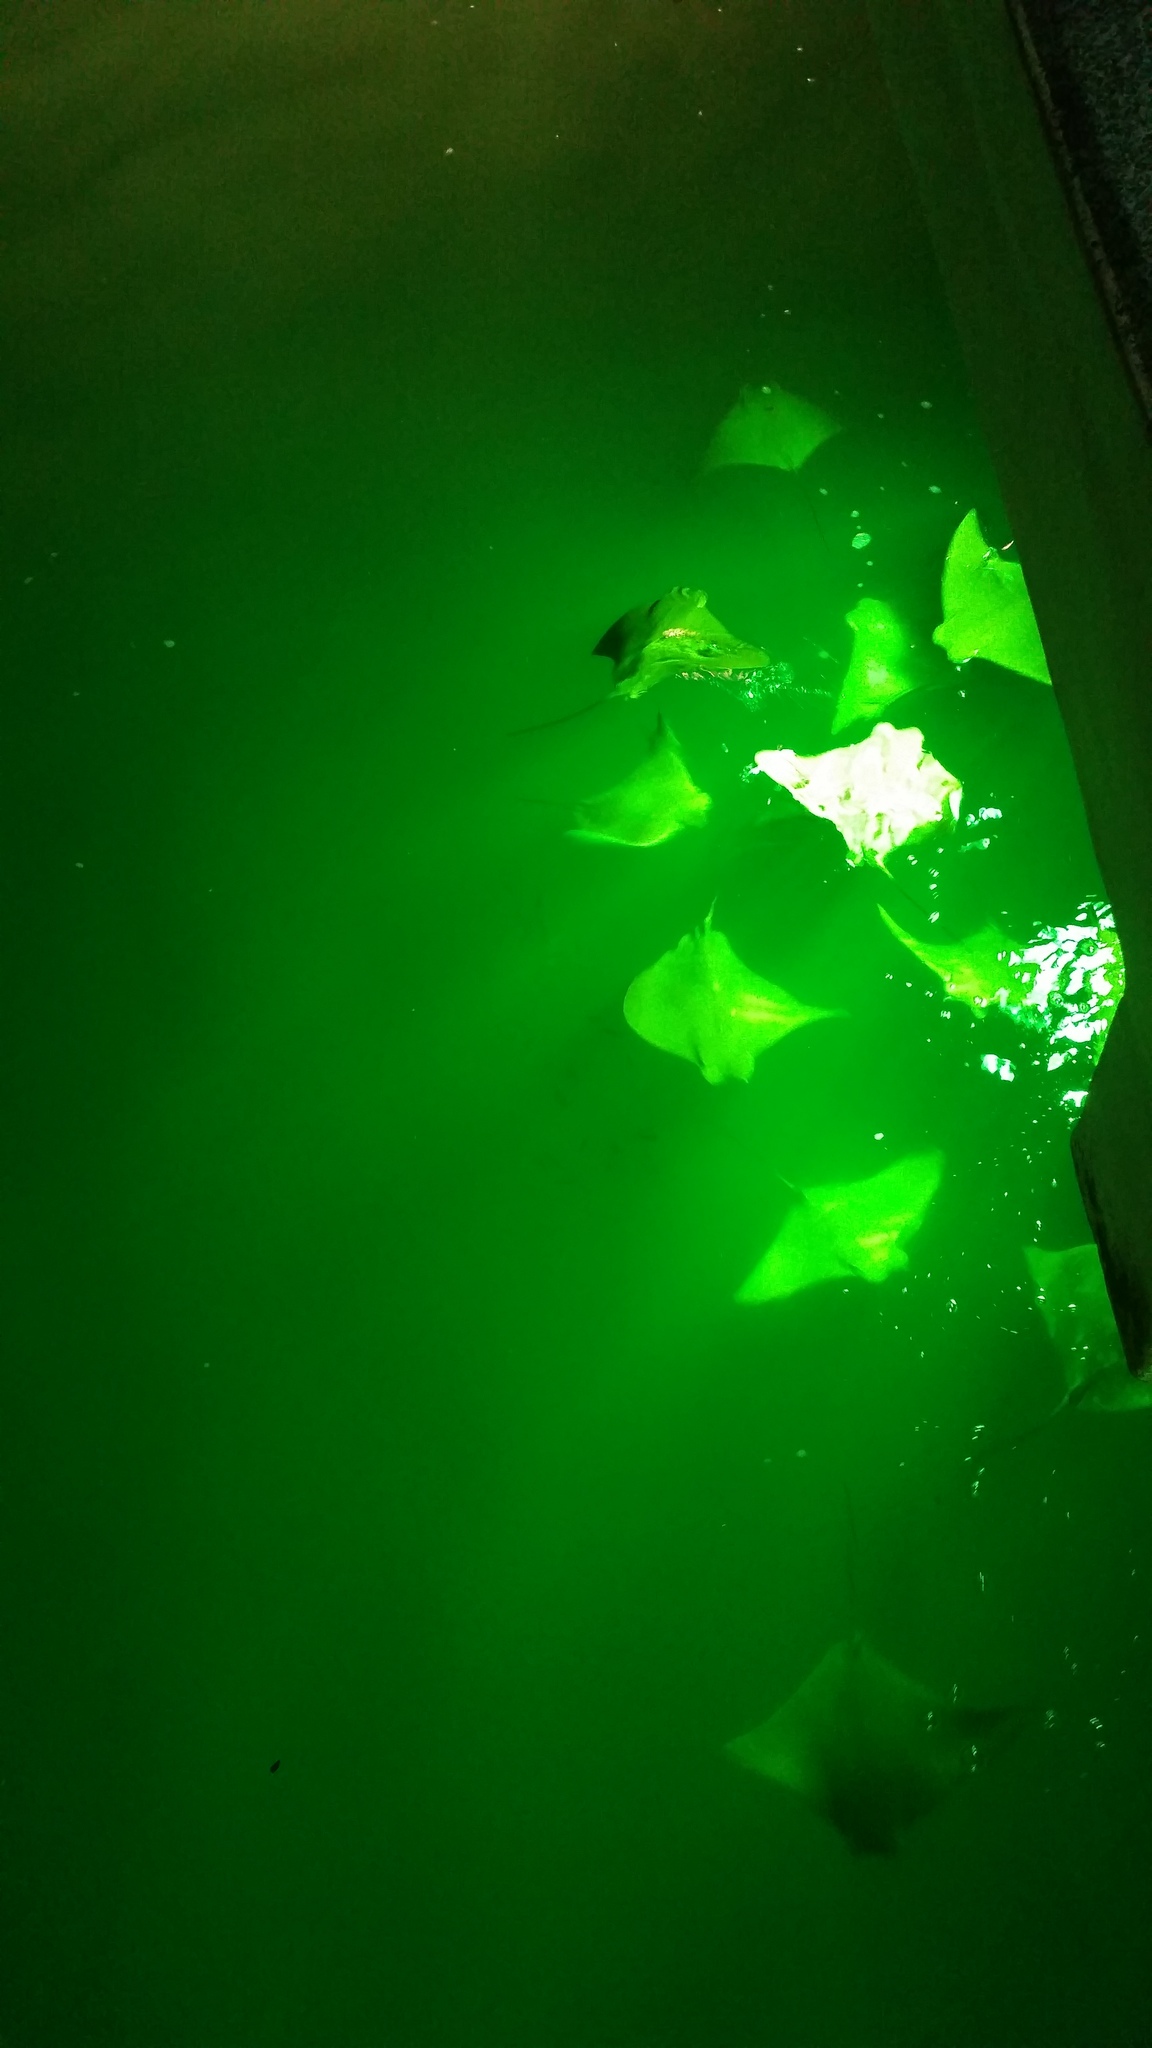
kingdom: Animalia
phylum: Chordata
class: Elasmobranchii
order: Myliobatiformes
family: Myliobatidae
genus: Rhinoptera
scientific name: Rhinoptera steindachneri
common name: Golden cownose ray
